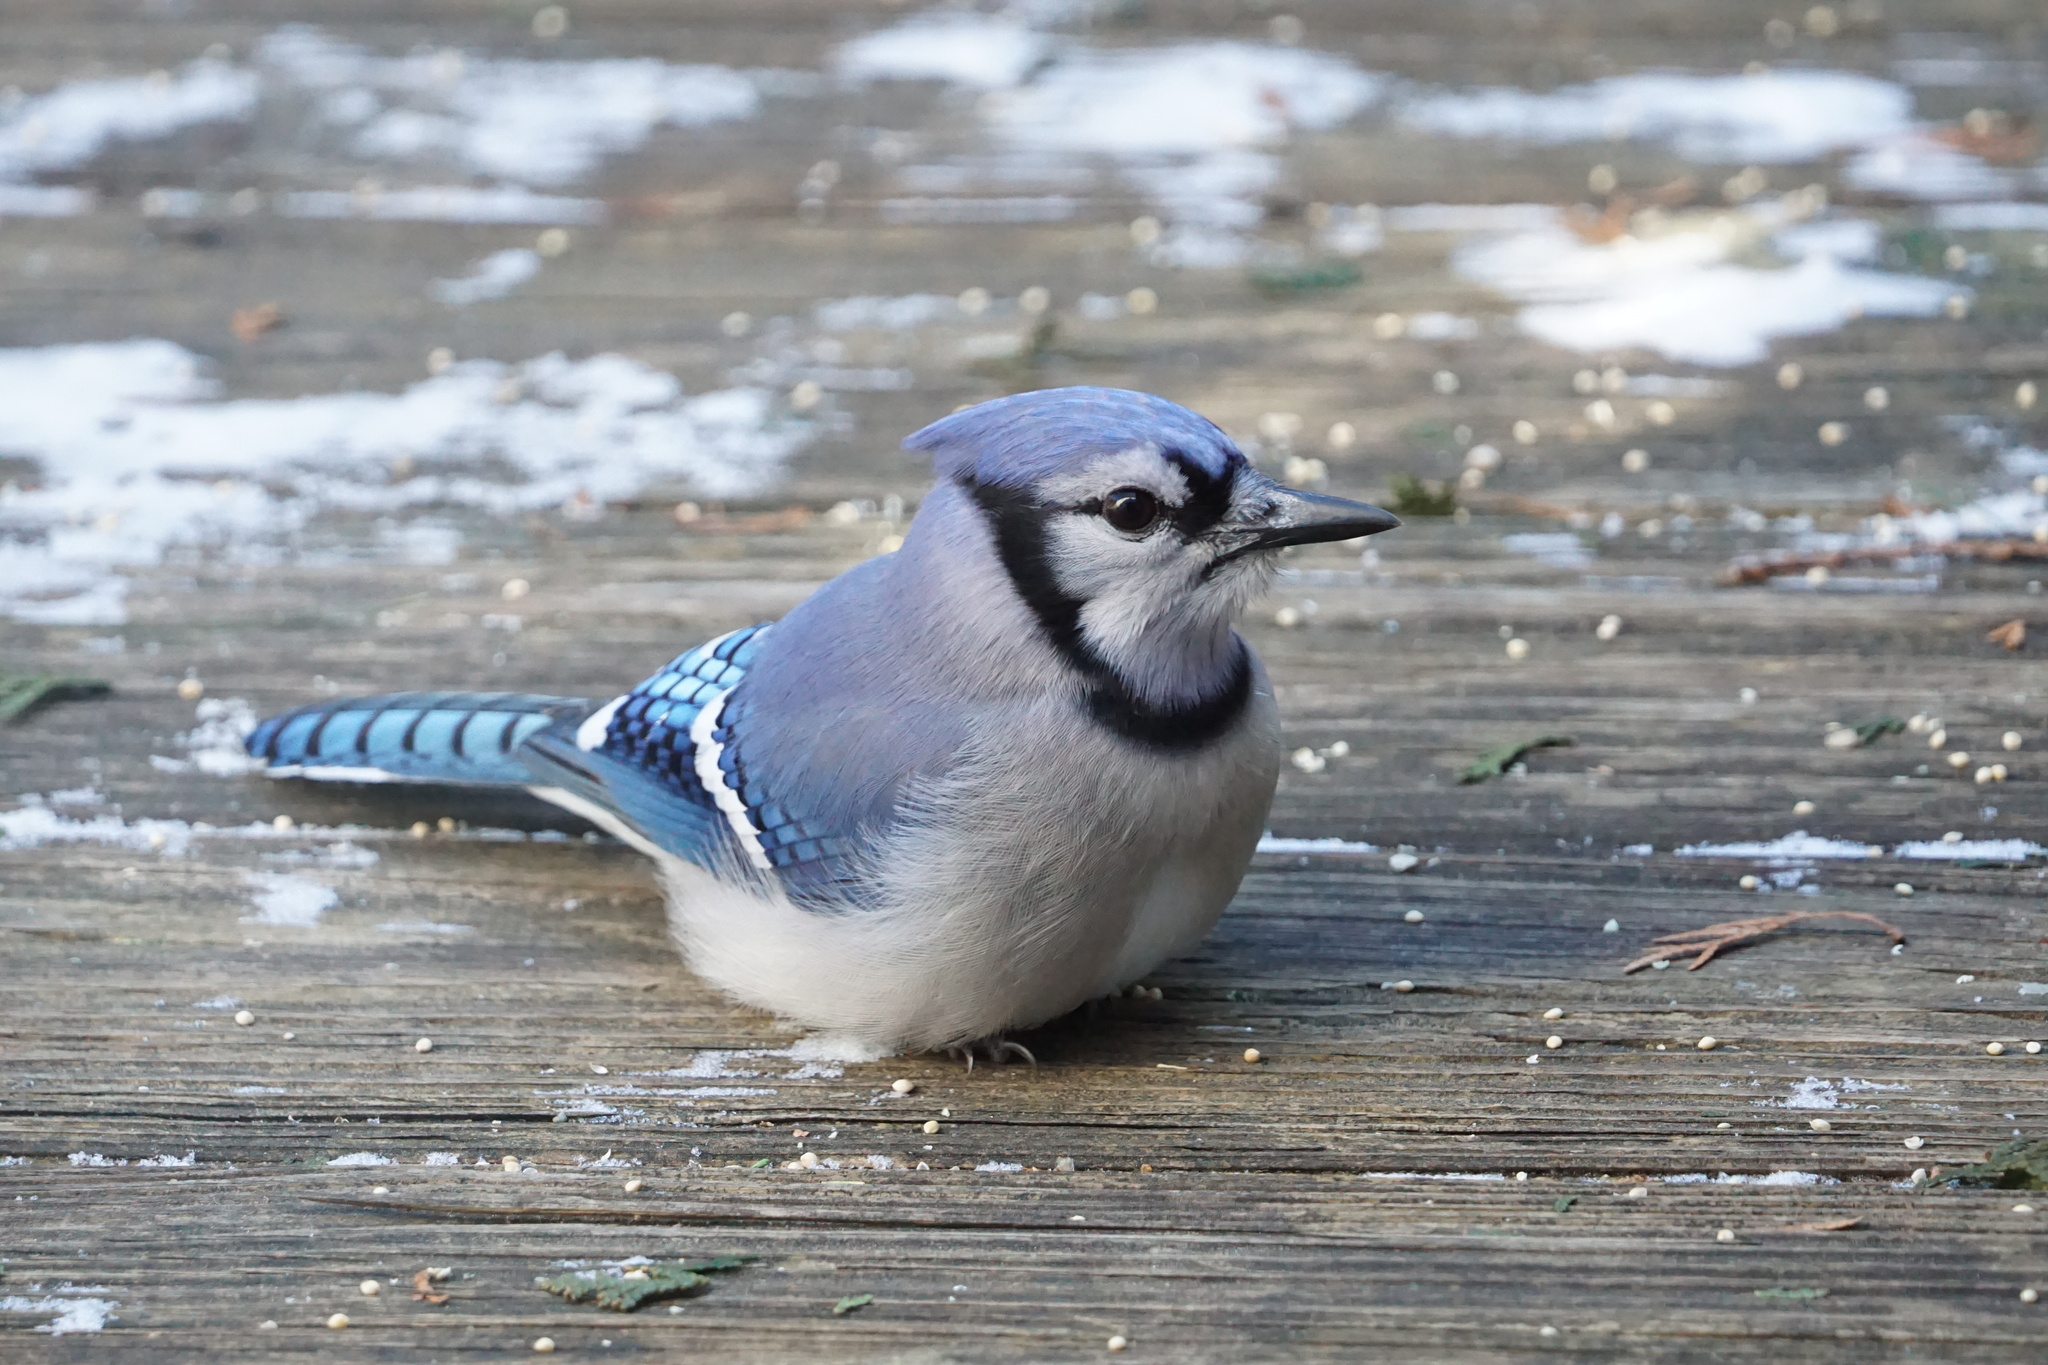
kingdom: Animalia
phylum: Chordata
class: Aves
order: Passeriformes
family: Corvidae
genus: Cyanocitta
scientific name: Cyanocitta cristata
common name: Blue jay
